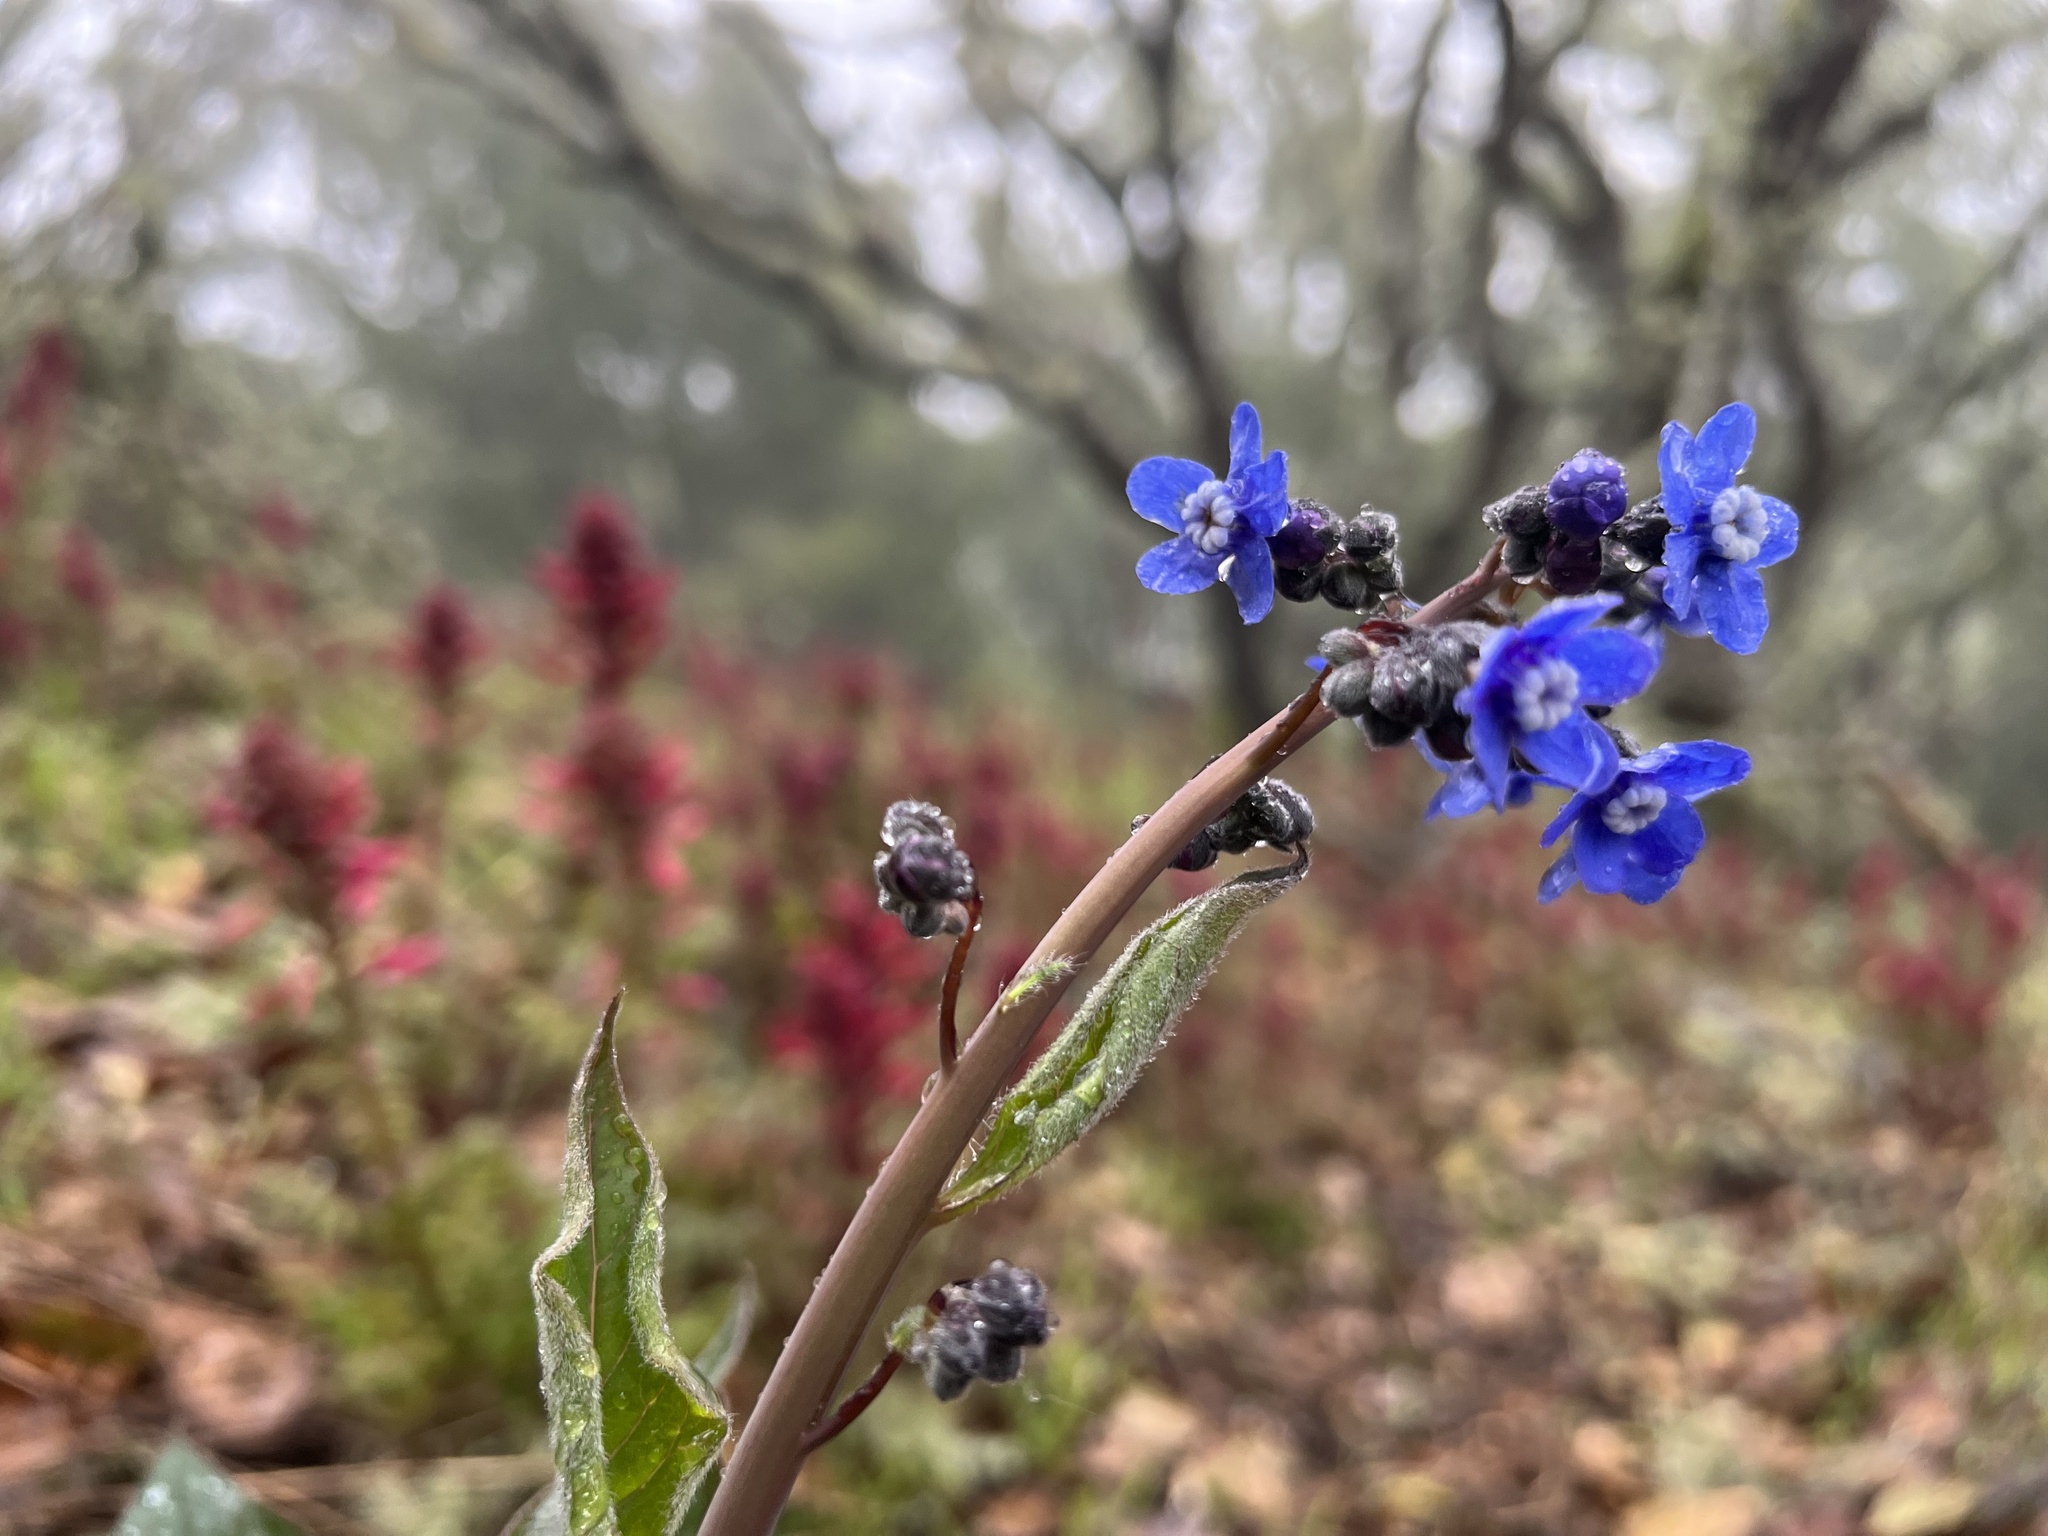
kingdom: Plantae
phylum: Tracheophyta
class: Magnoliopsida
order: Boraginales
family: Boraginaceae
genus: Adelinia
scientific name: Adelinia grande
